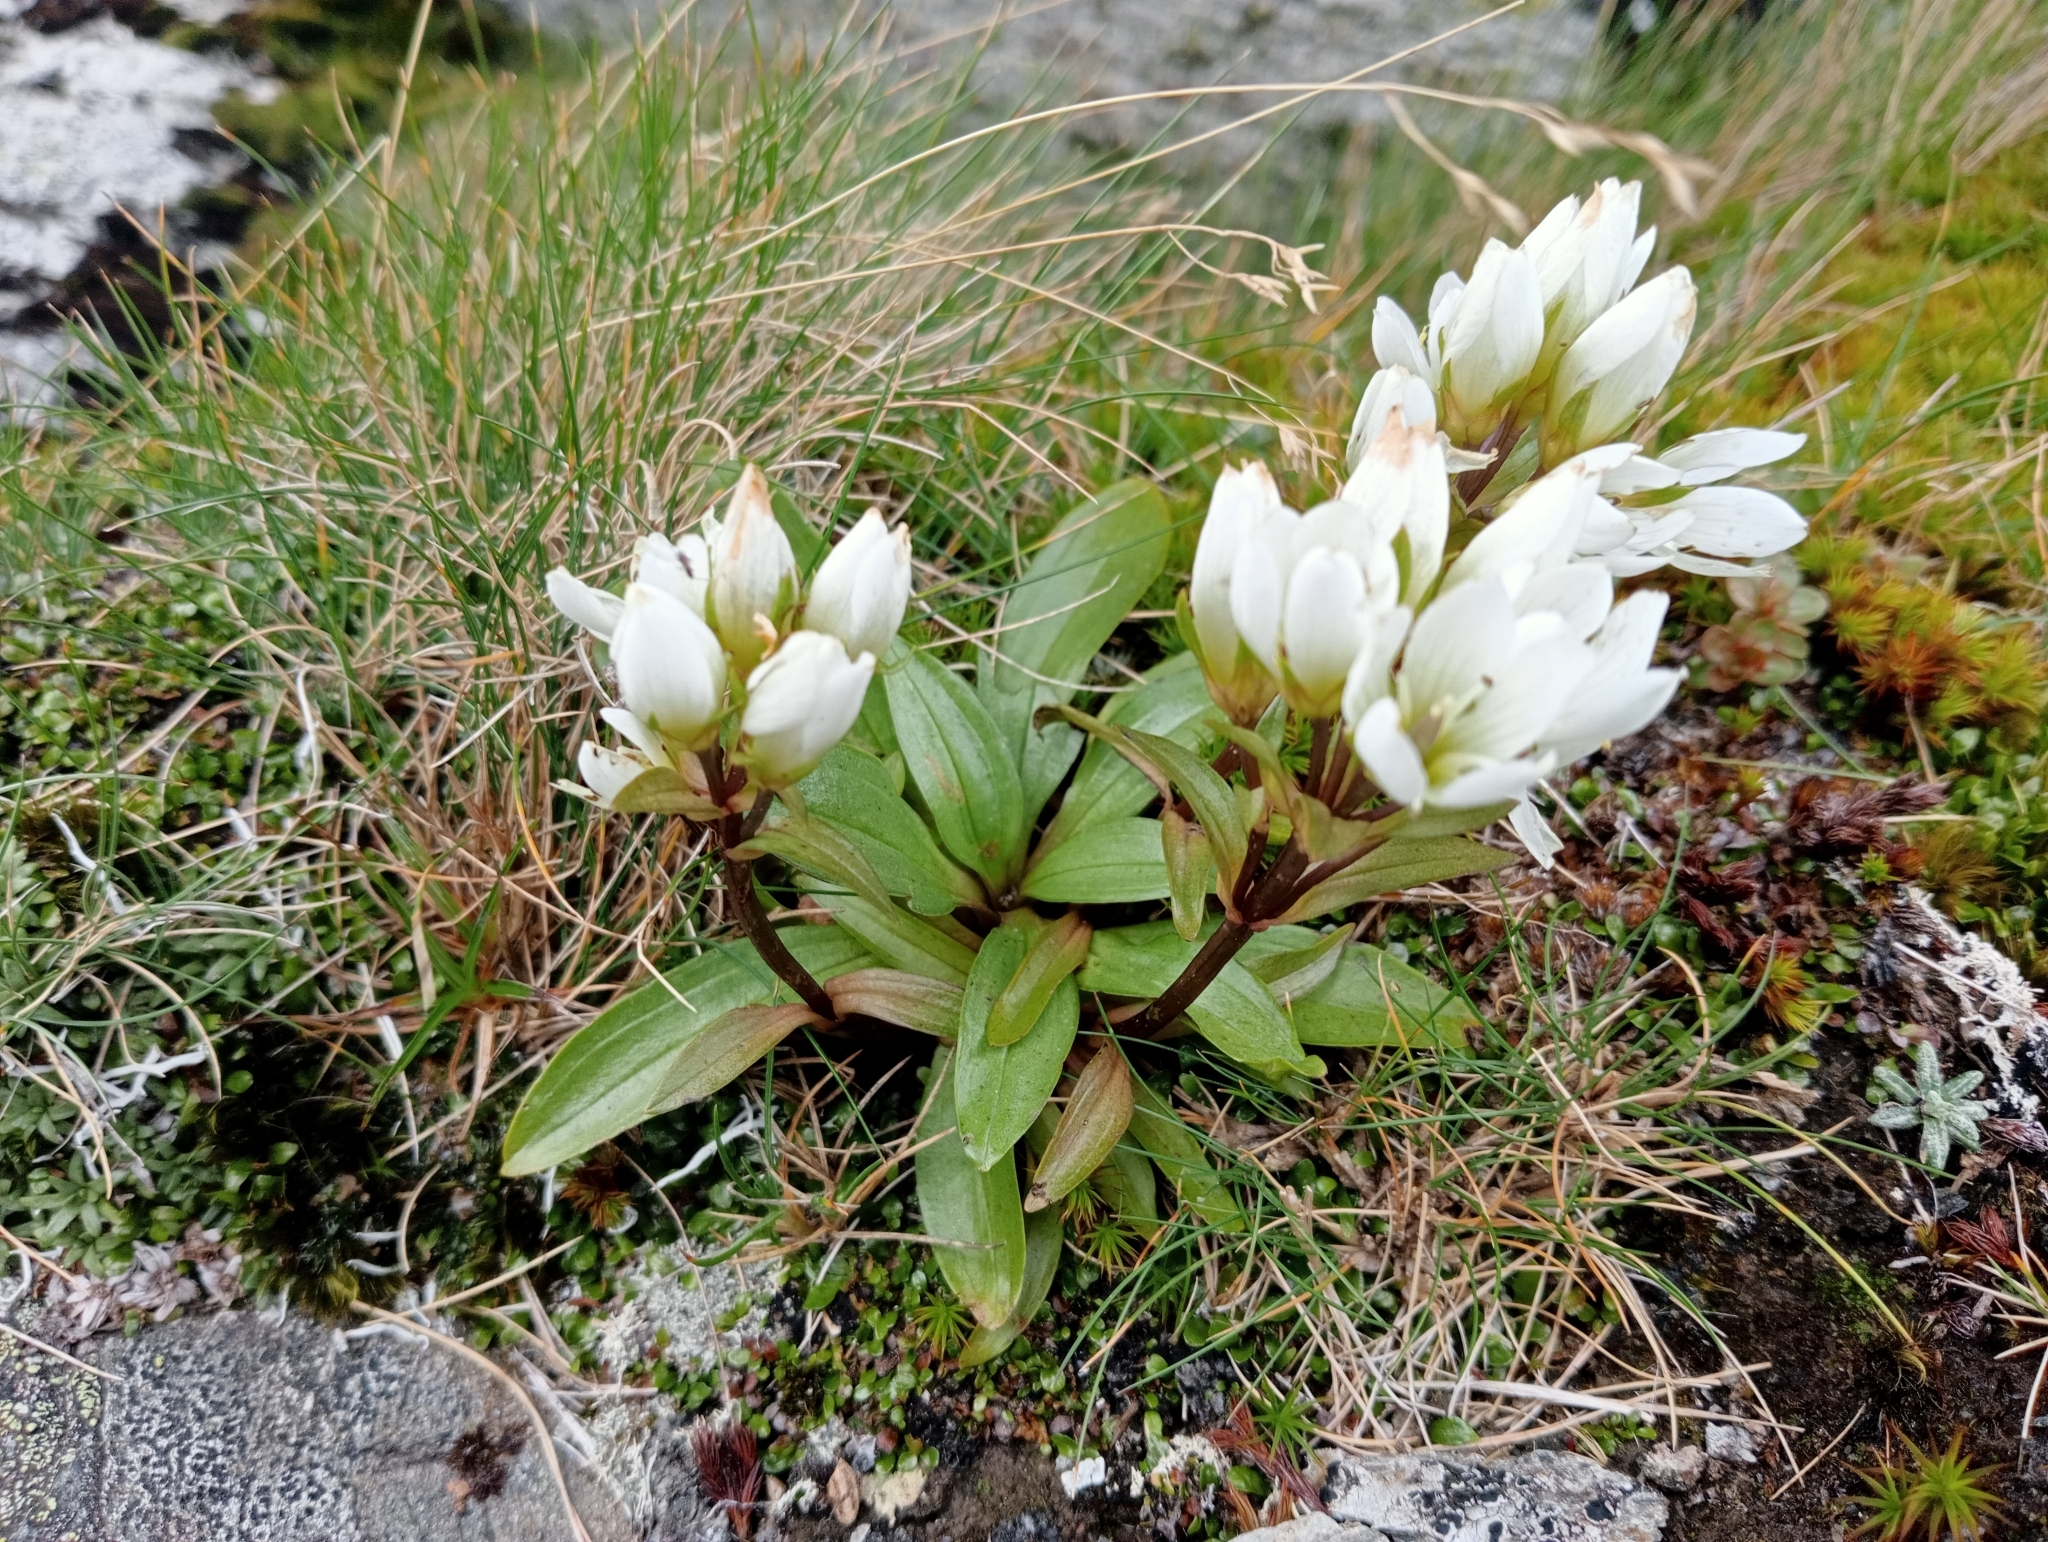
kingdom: Plantae
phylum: Tracheophyta
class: Magnoliopsida
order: Gentianales
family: Gentianaceae
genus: Gentianella
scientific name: Gentianella bellidifolia
